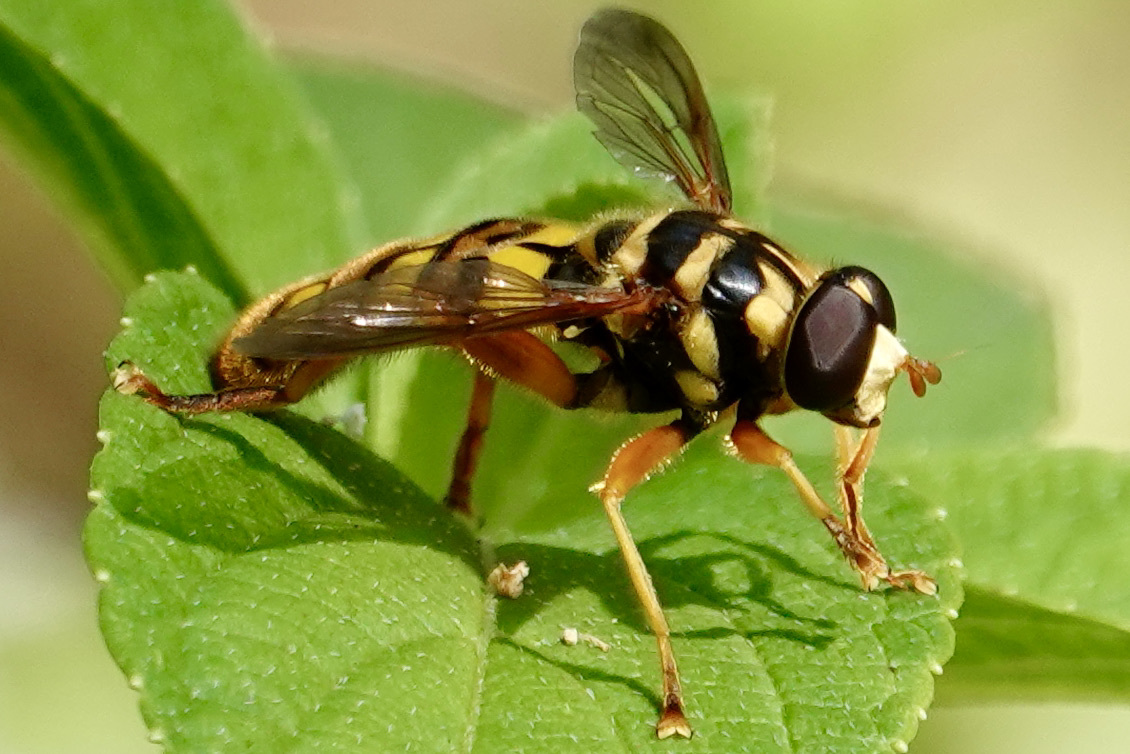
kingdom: Animalia
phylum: Arthropoda
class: Insecta
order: Diptera
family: Syrphidae
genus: Milesia
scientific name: Milesia virginiensis
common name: Virginia giant
